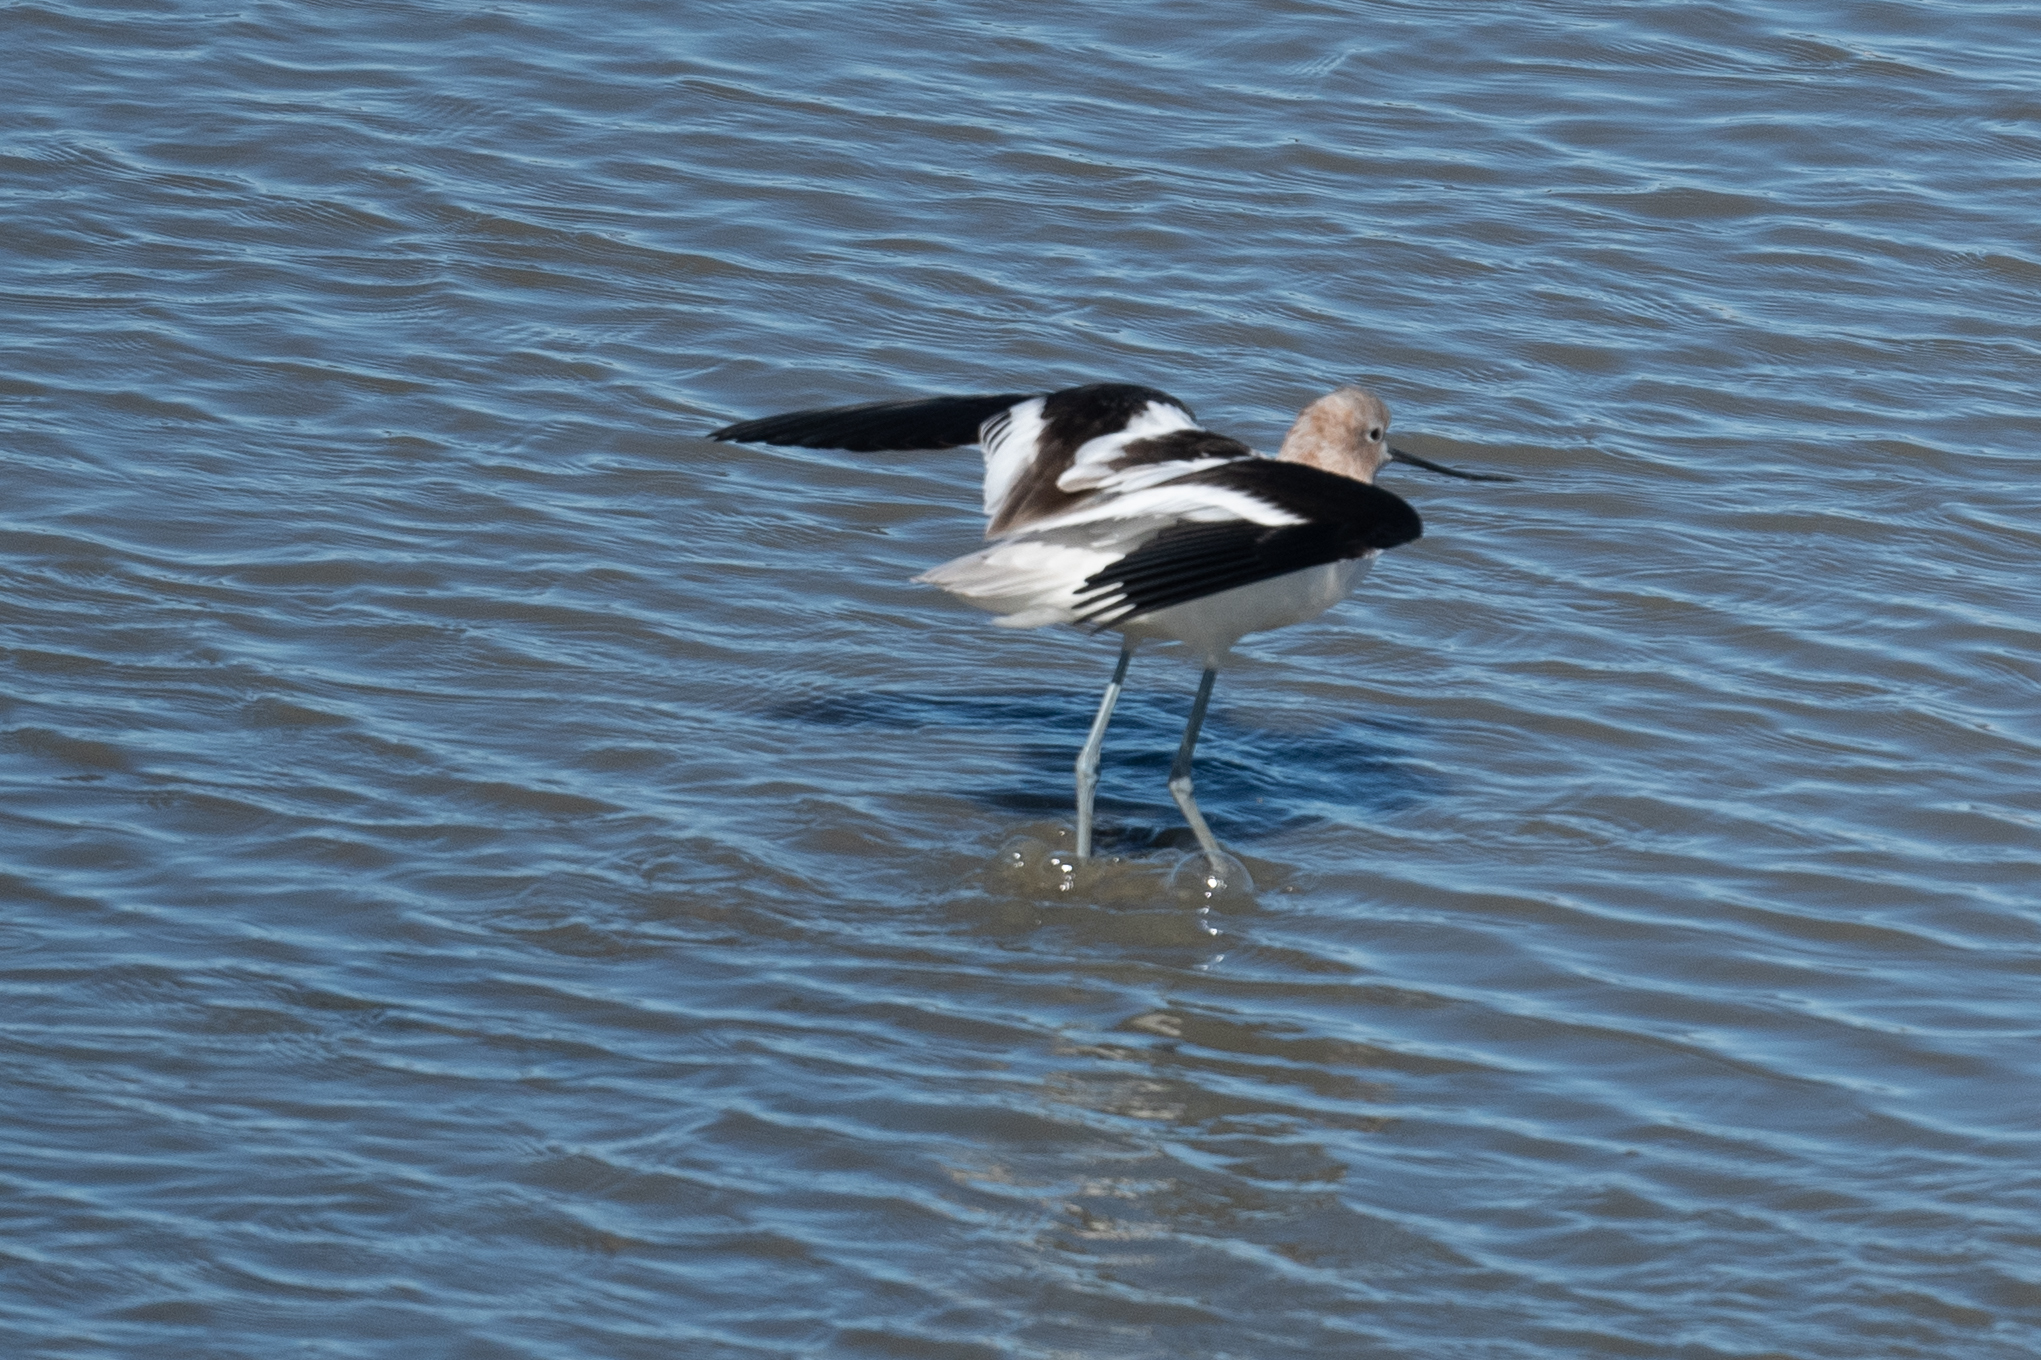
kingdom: Animalia
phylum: Chordata
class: Aves
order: Charadriiformes
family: Recurvirostridae
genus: Recurvirostra
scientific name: Recurvirostra americana
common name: American avocet
